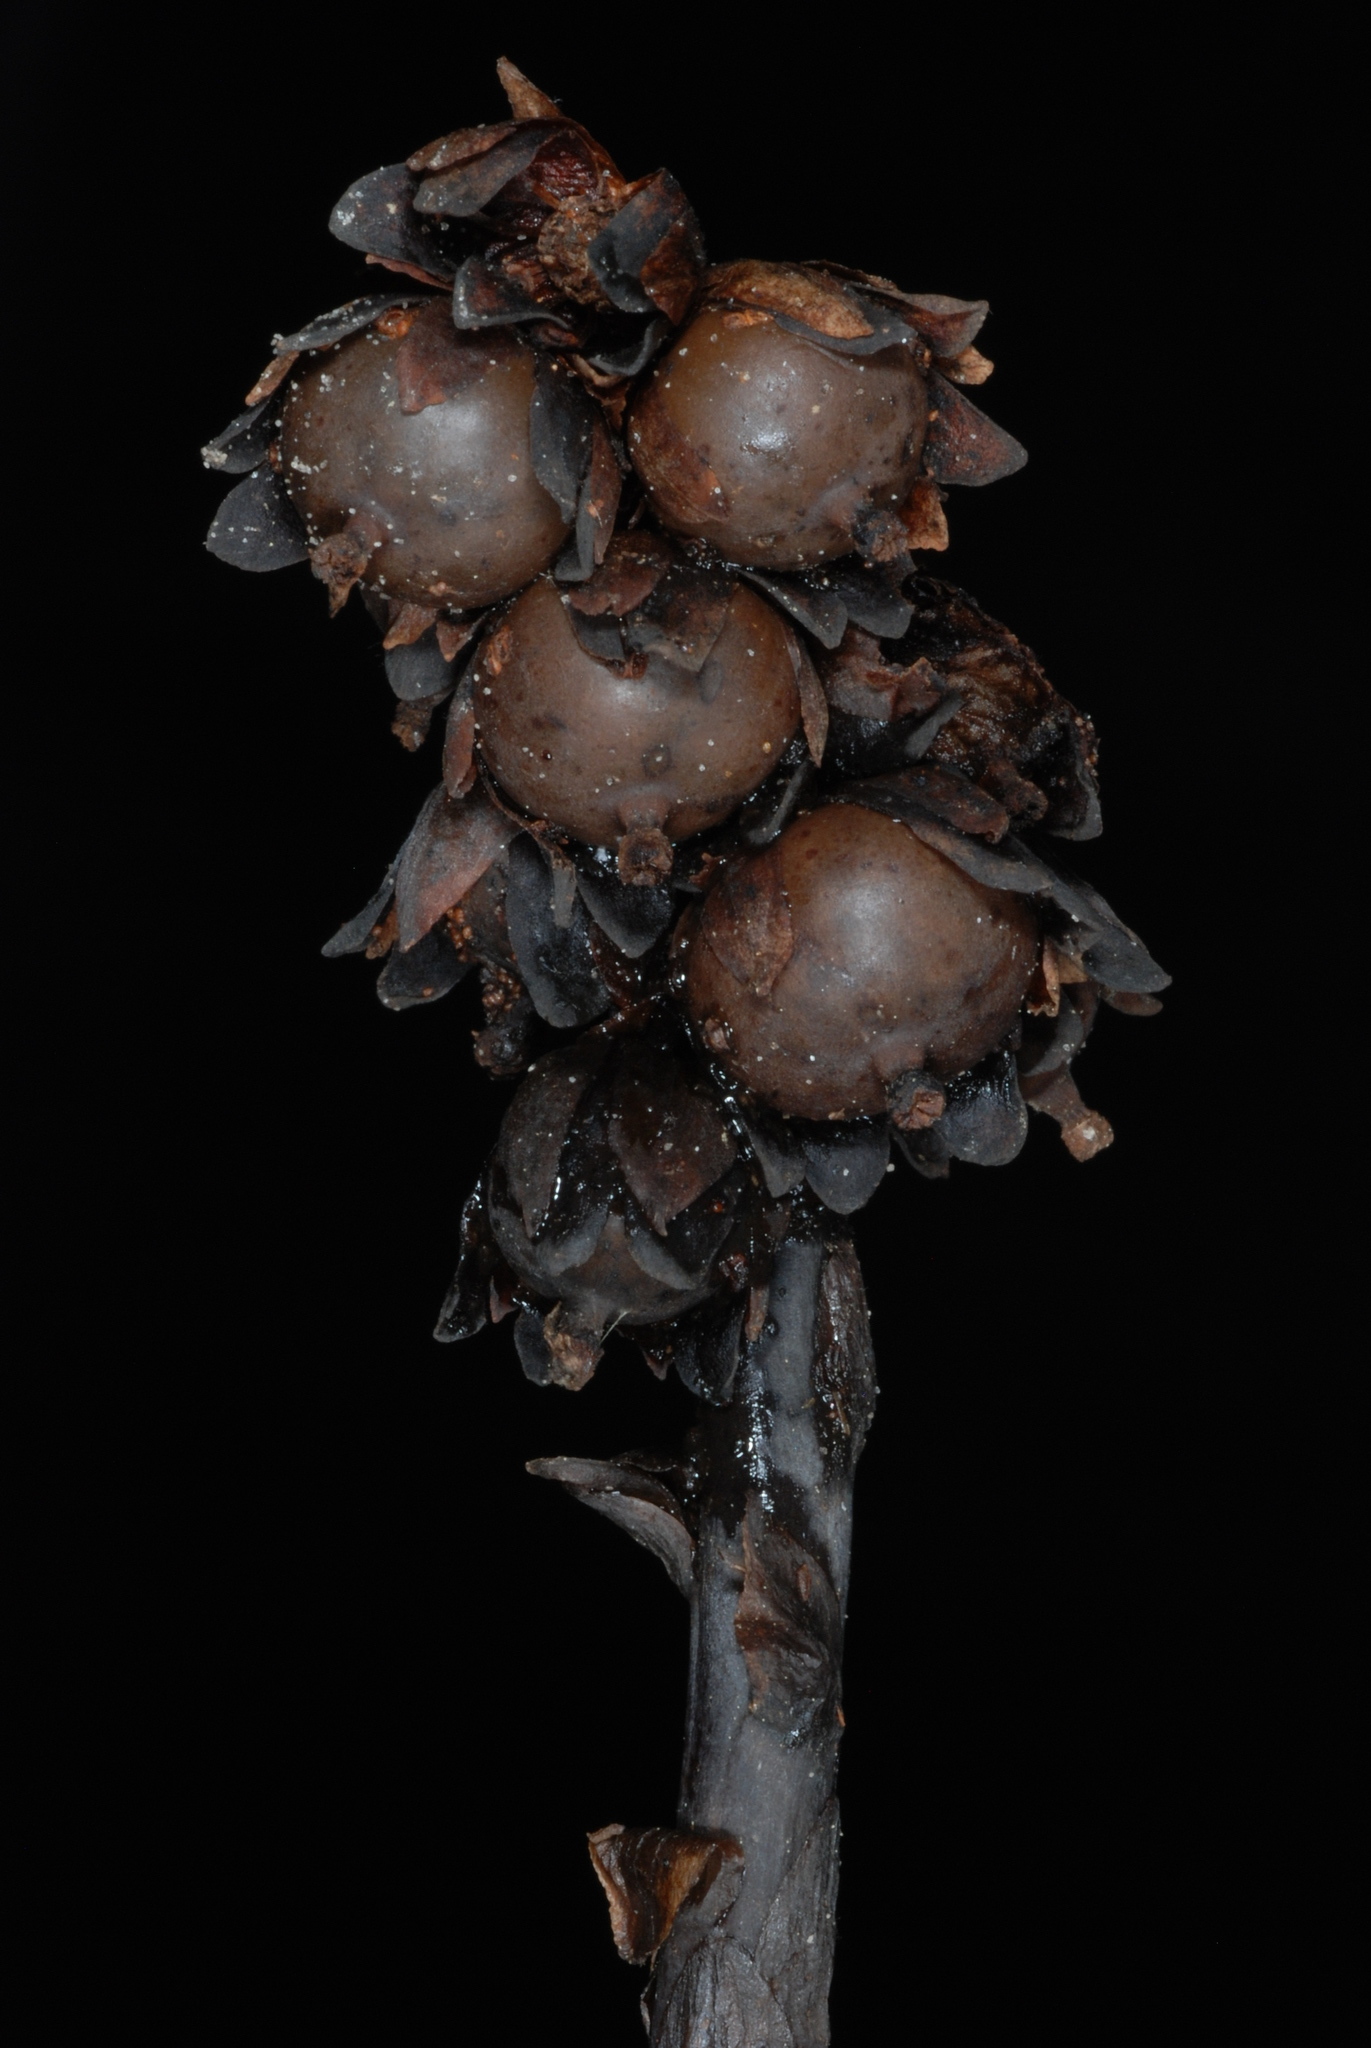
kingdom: Plantae
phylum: Tracheophyta
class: Magnoliopsida
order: Ericales
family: Ericaceae
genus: Monotropsis
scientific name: Monotropsis odorata
